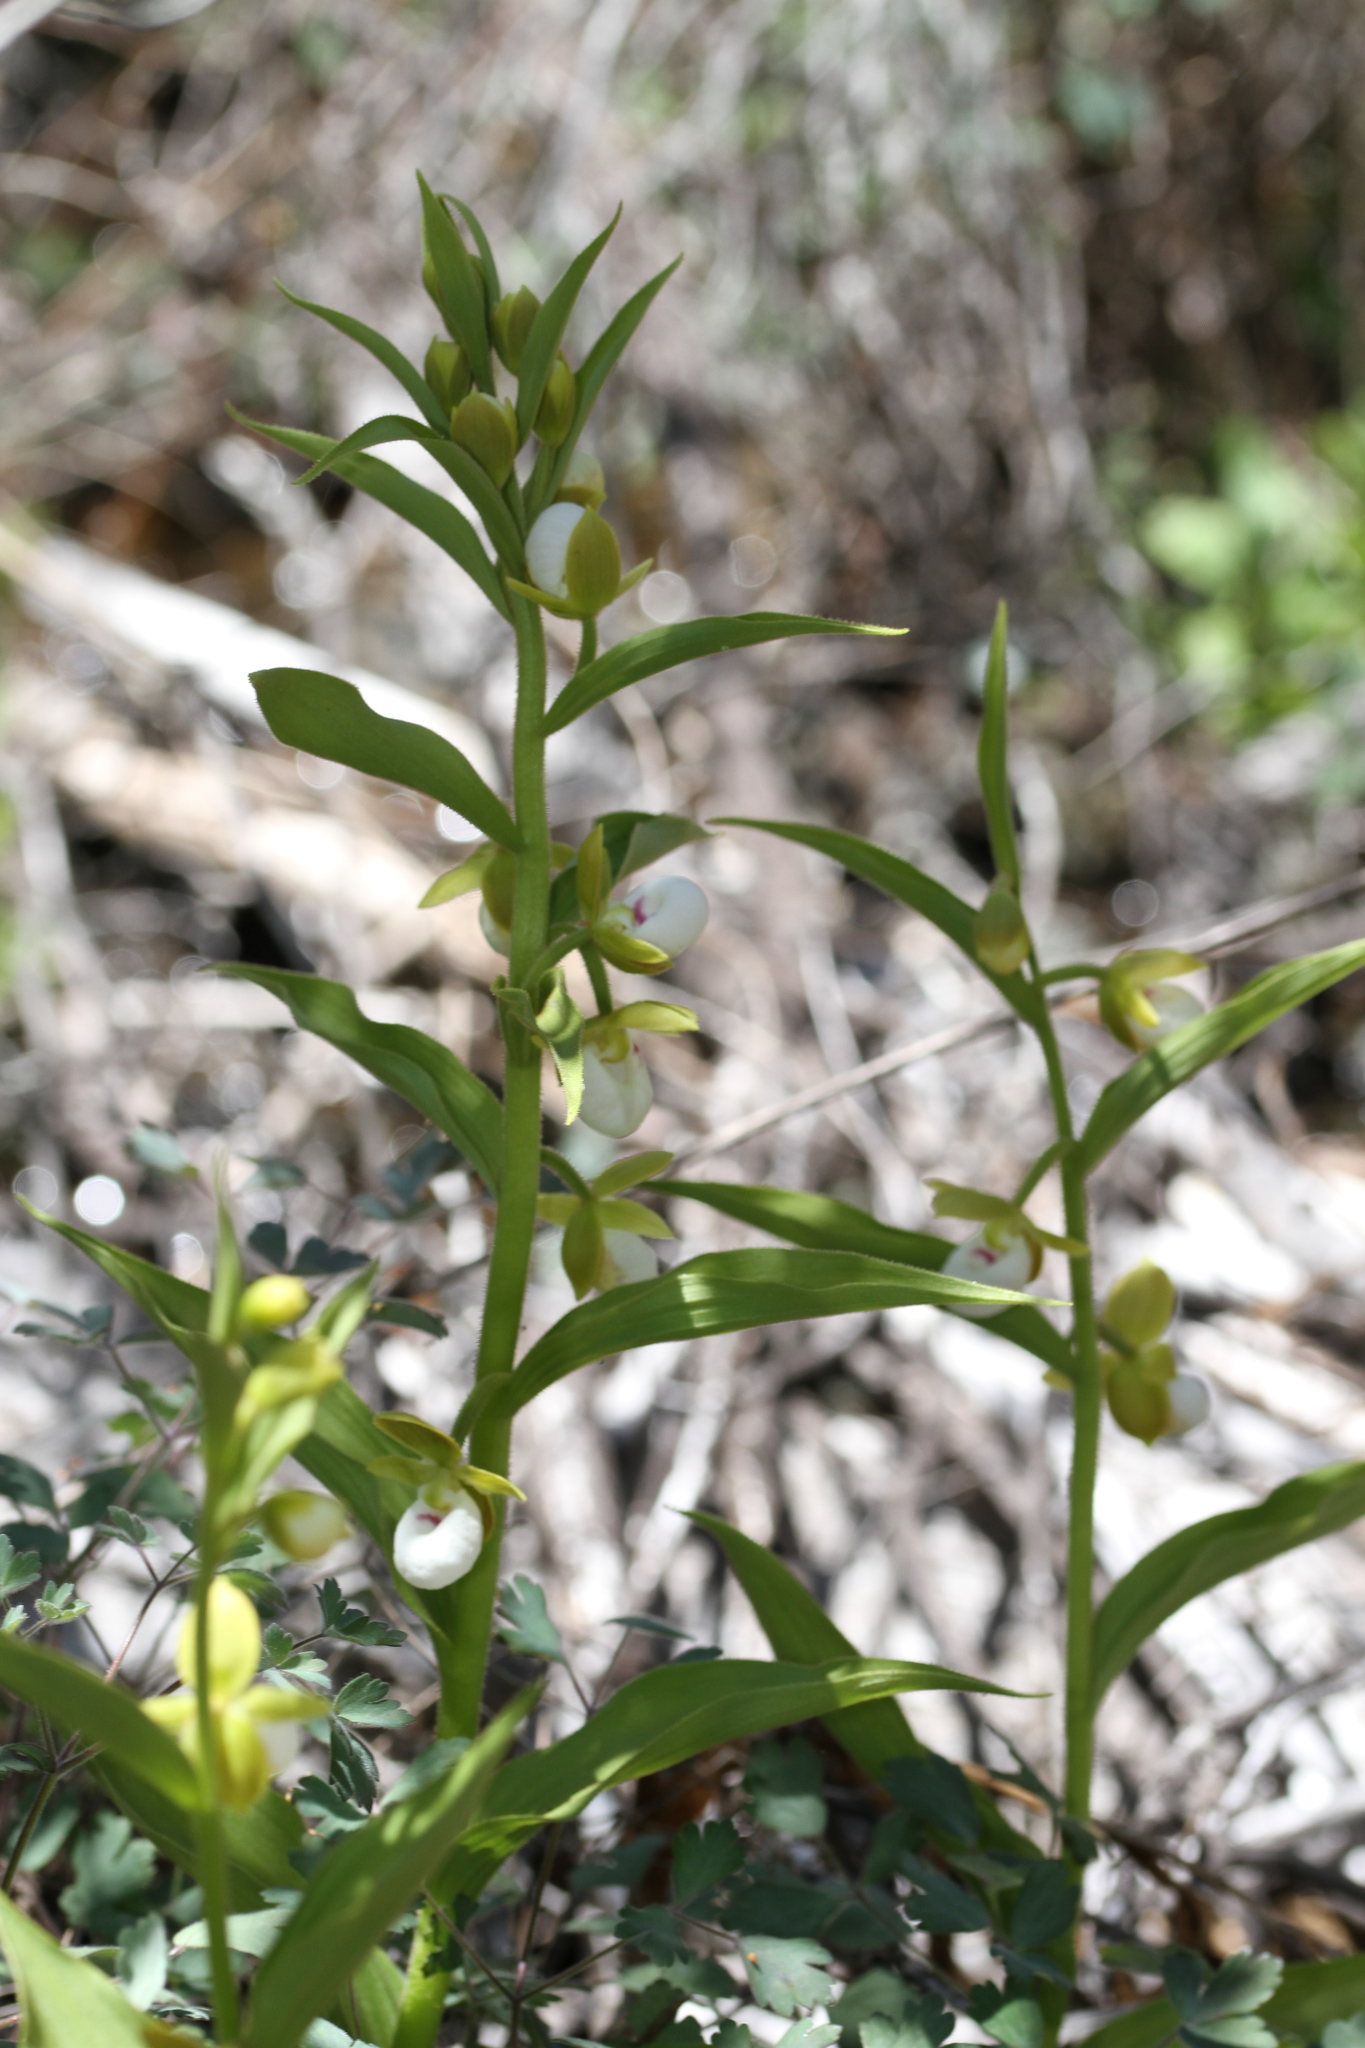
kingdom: Plantae
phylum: Tracheophyta
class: Liliopsida
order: Asparagales
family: Orchidaceae
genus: Cypripedium
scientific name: Cypripedium californicum
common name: California lady's slipper
